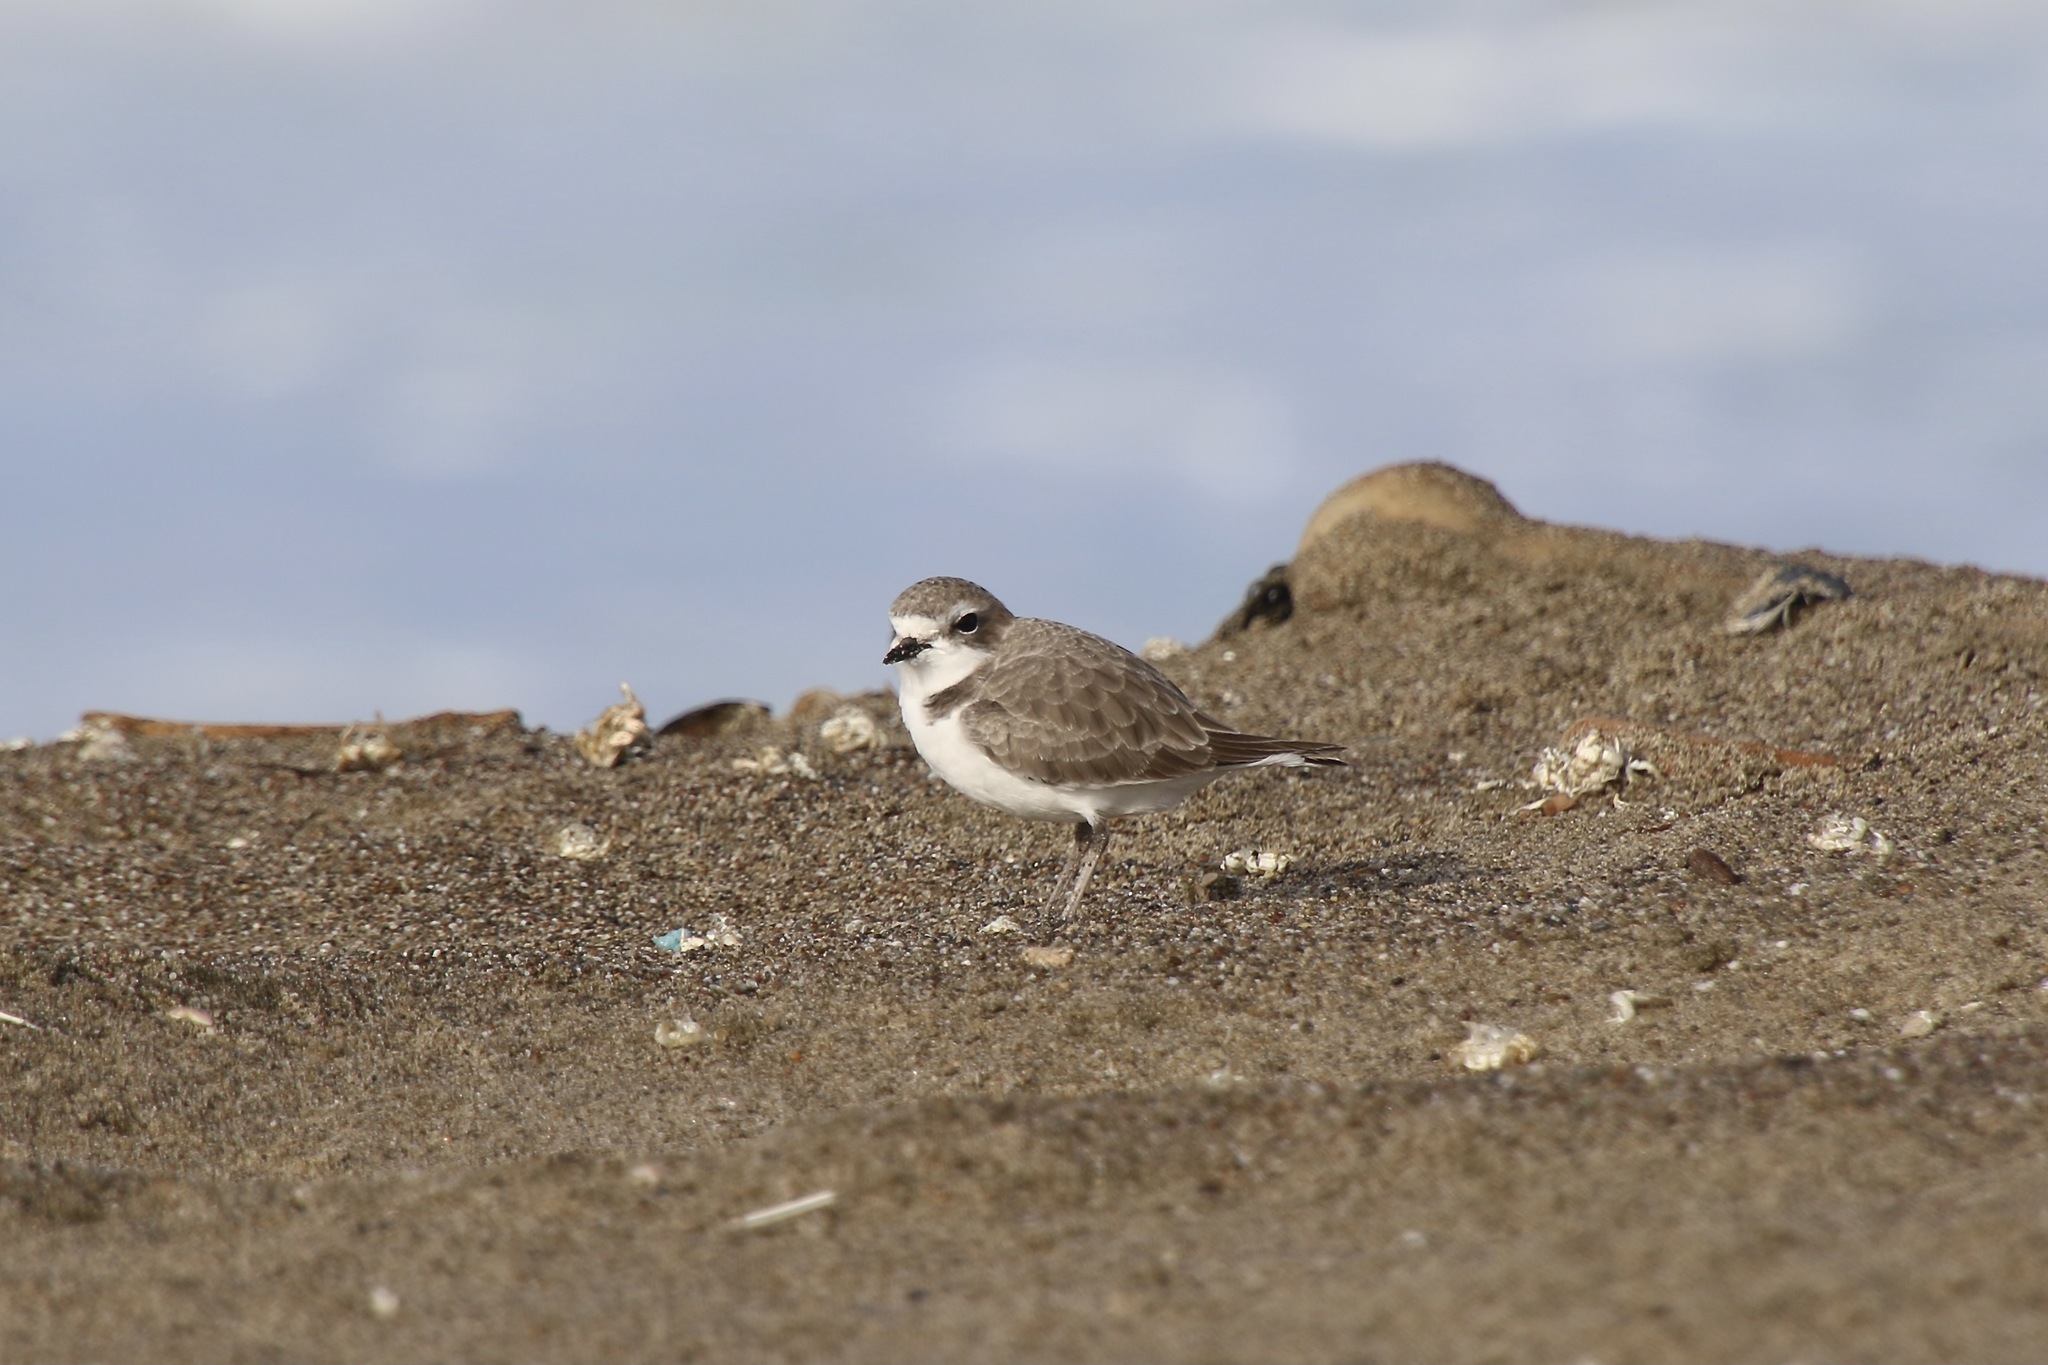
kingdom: Animalia
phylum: Chordata
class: Aves
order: Charadriiformes
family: Charadriidae
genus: Anarhynchus
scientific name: Anarhynchus
